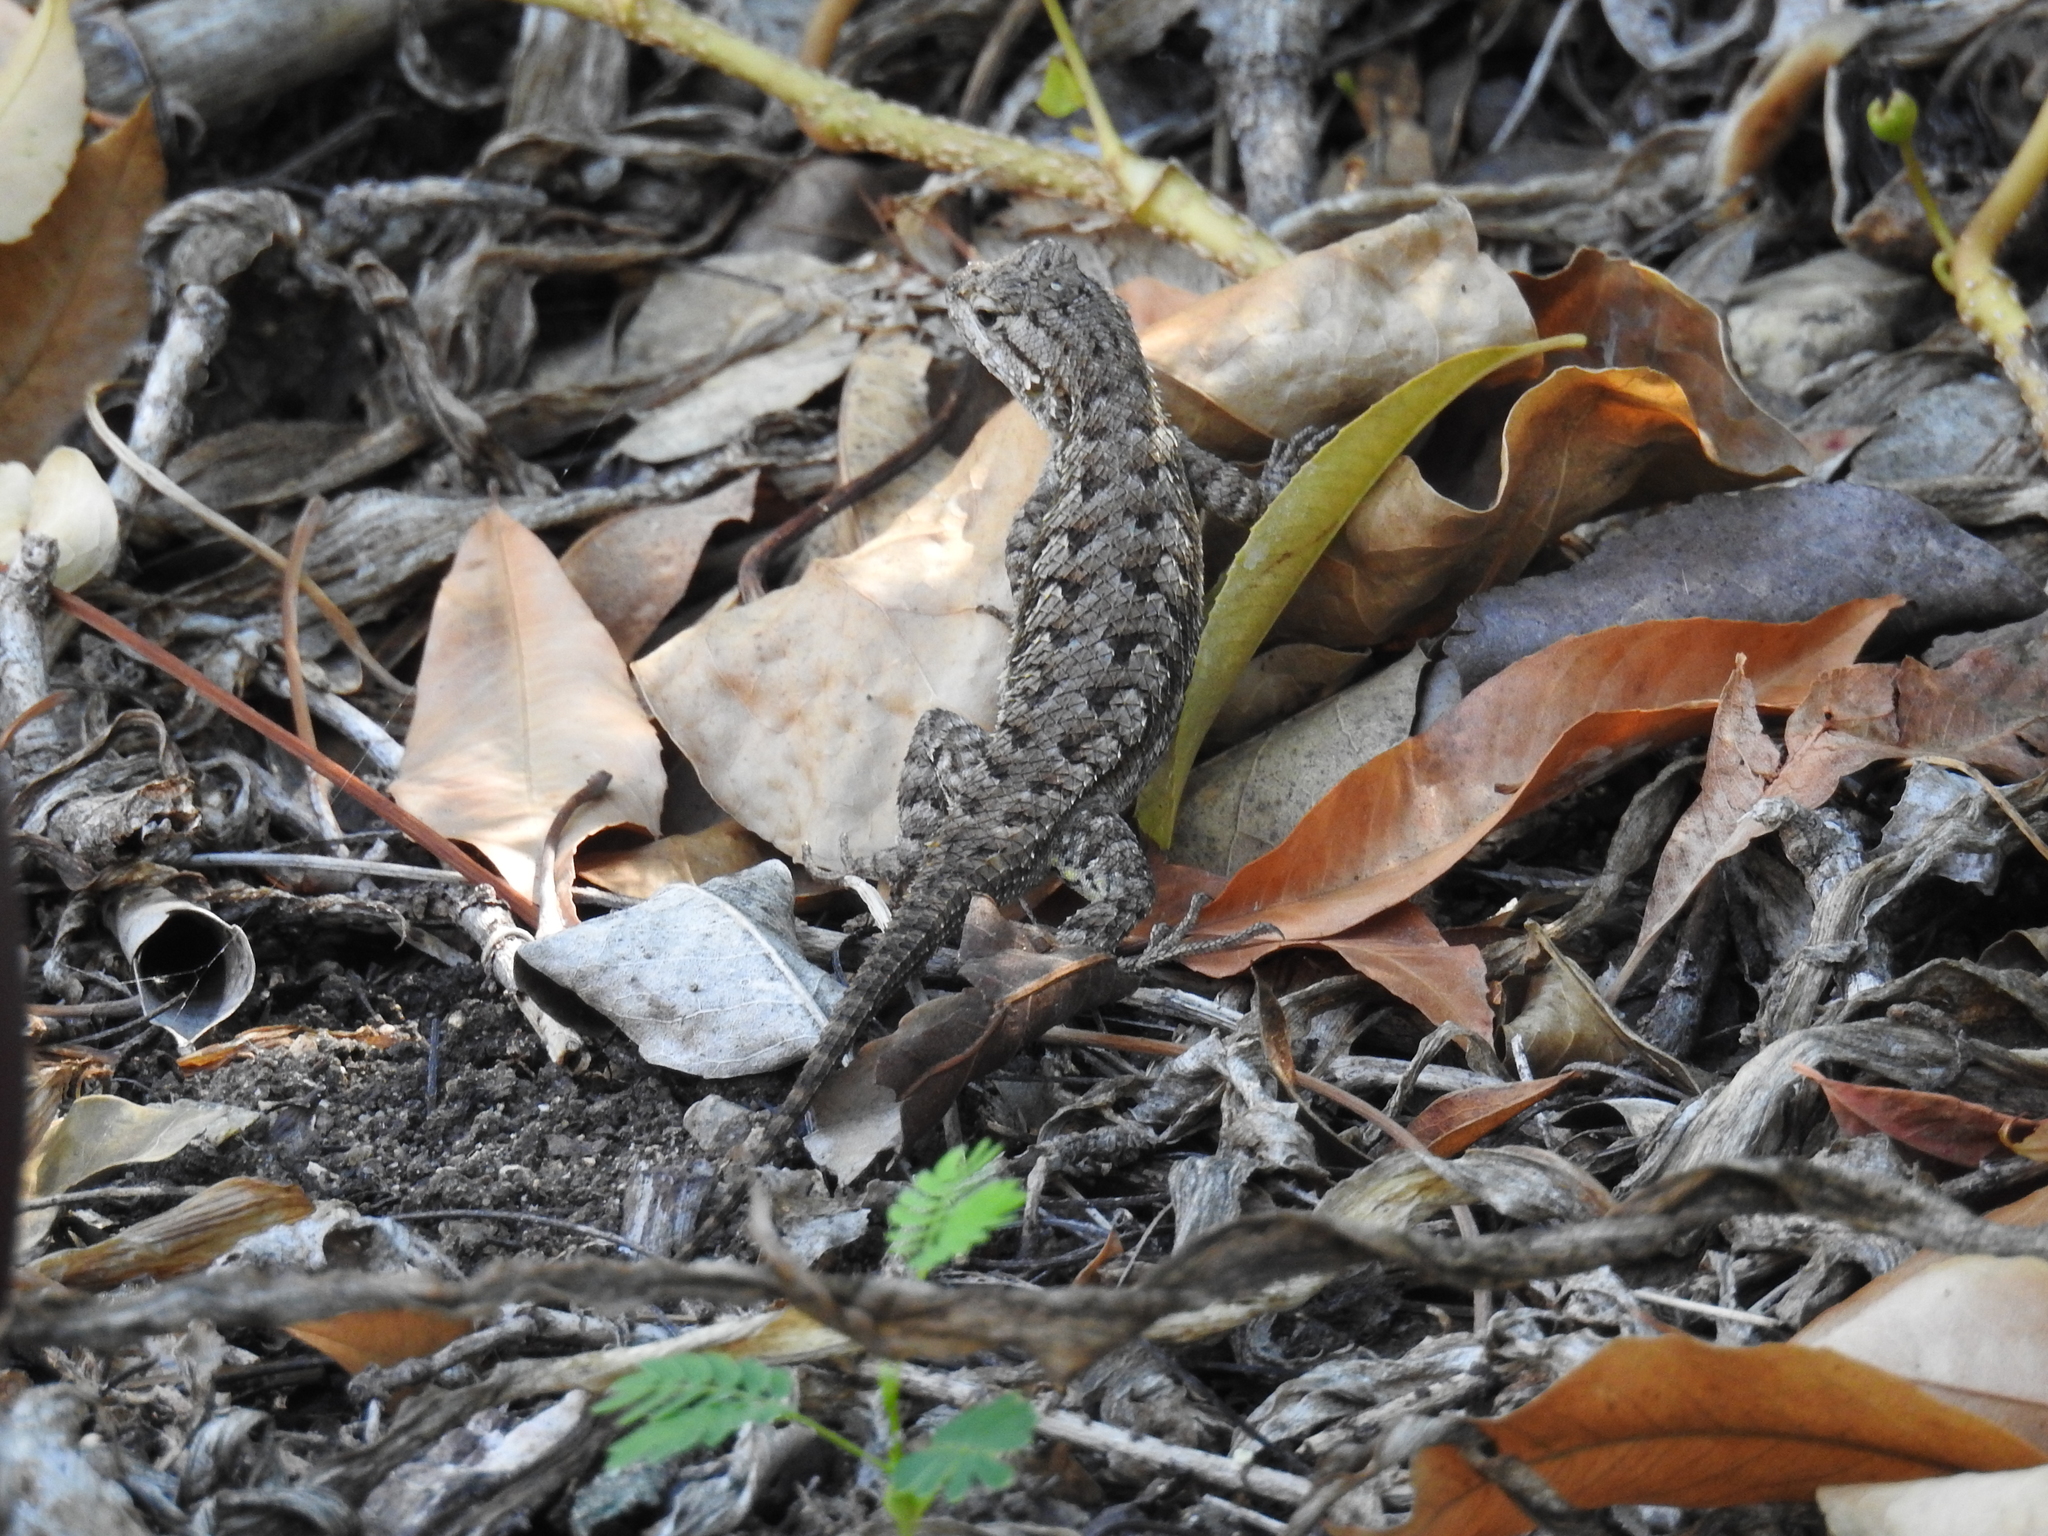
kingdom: Animalia
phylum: Chordata
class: Squamata
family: Phrynosomatidae
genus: Sceloporus
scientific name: Sceloporus occidentalis
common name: Western fence lizard
